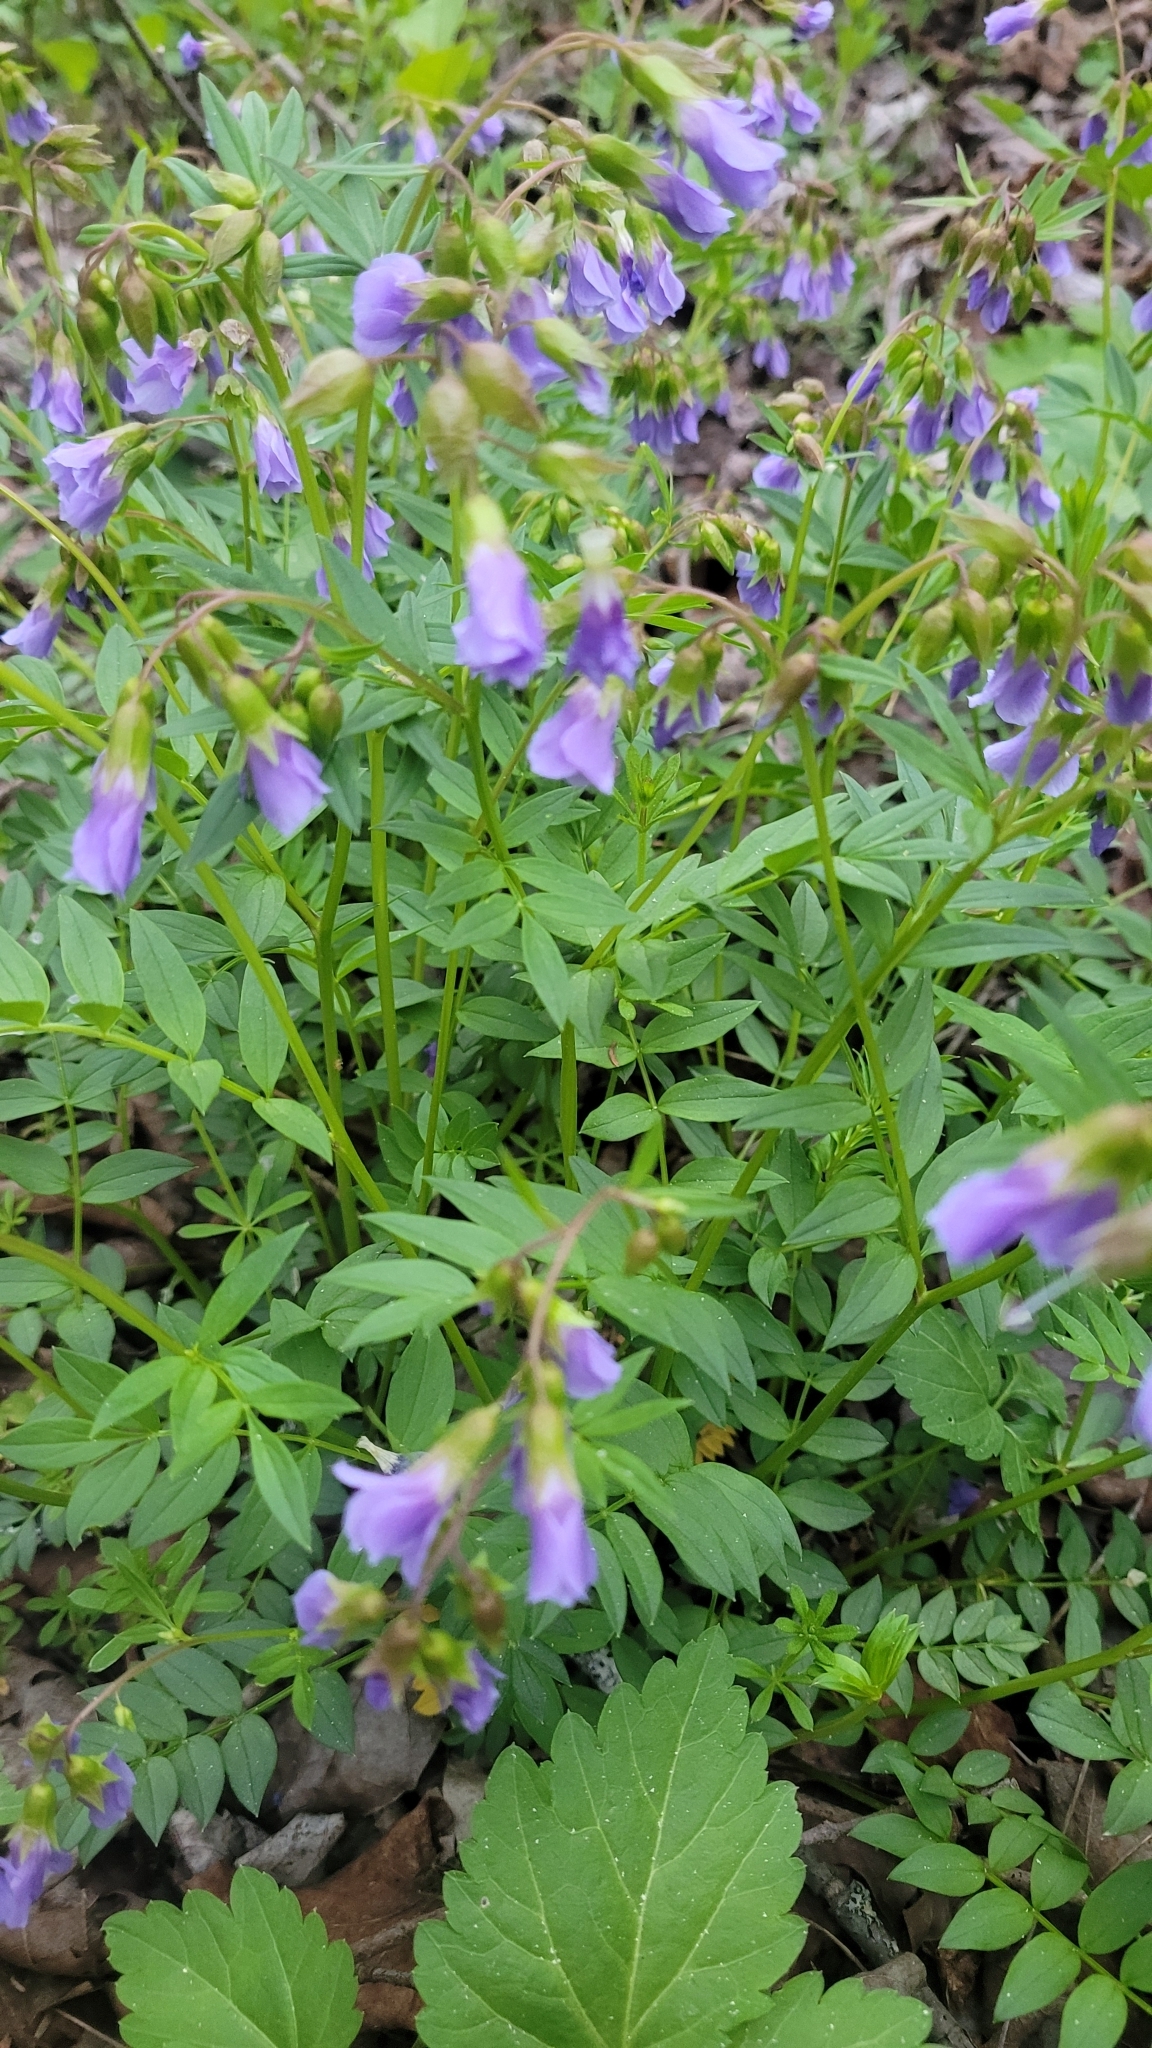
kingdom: Plantae
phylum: Tracheophyta
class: Magnoliopsida
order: Ericales
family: Polemoniaceae
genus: Polemonium
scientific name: Polemonium reptans
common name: Creeping jacob's-ladder
